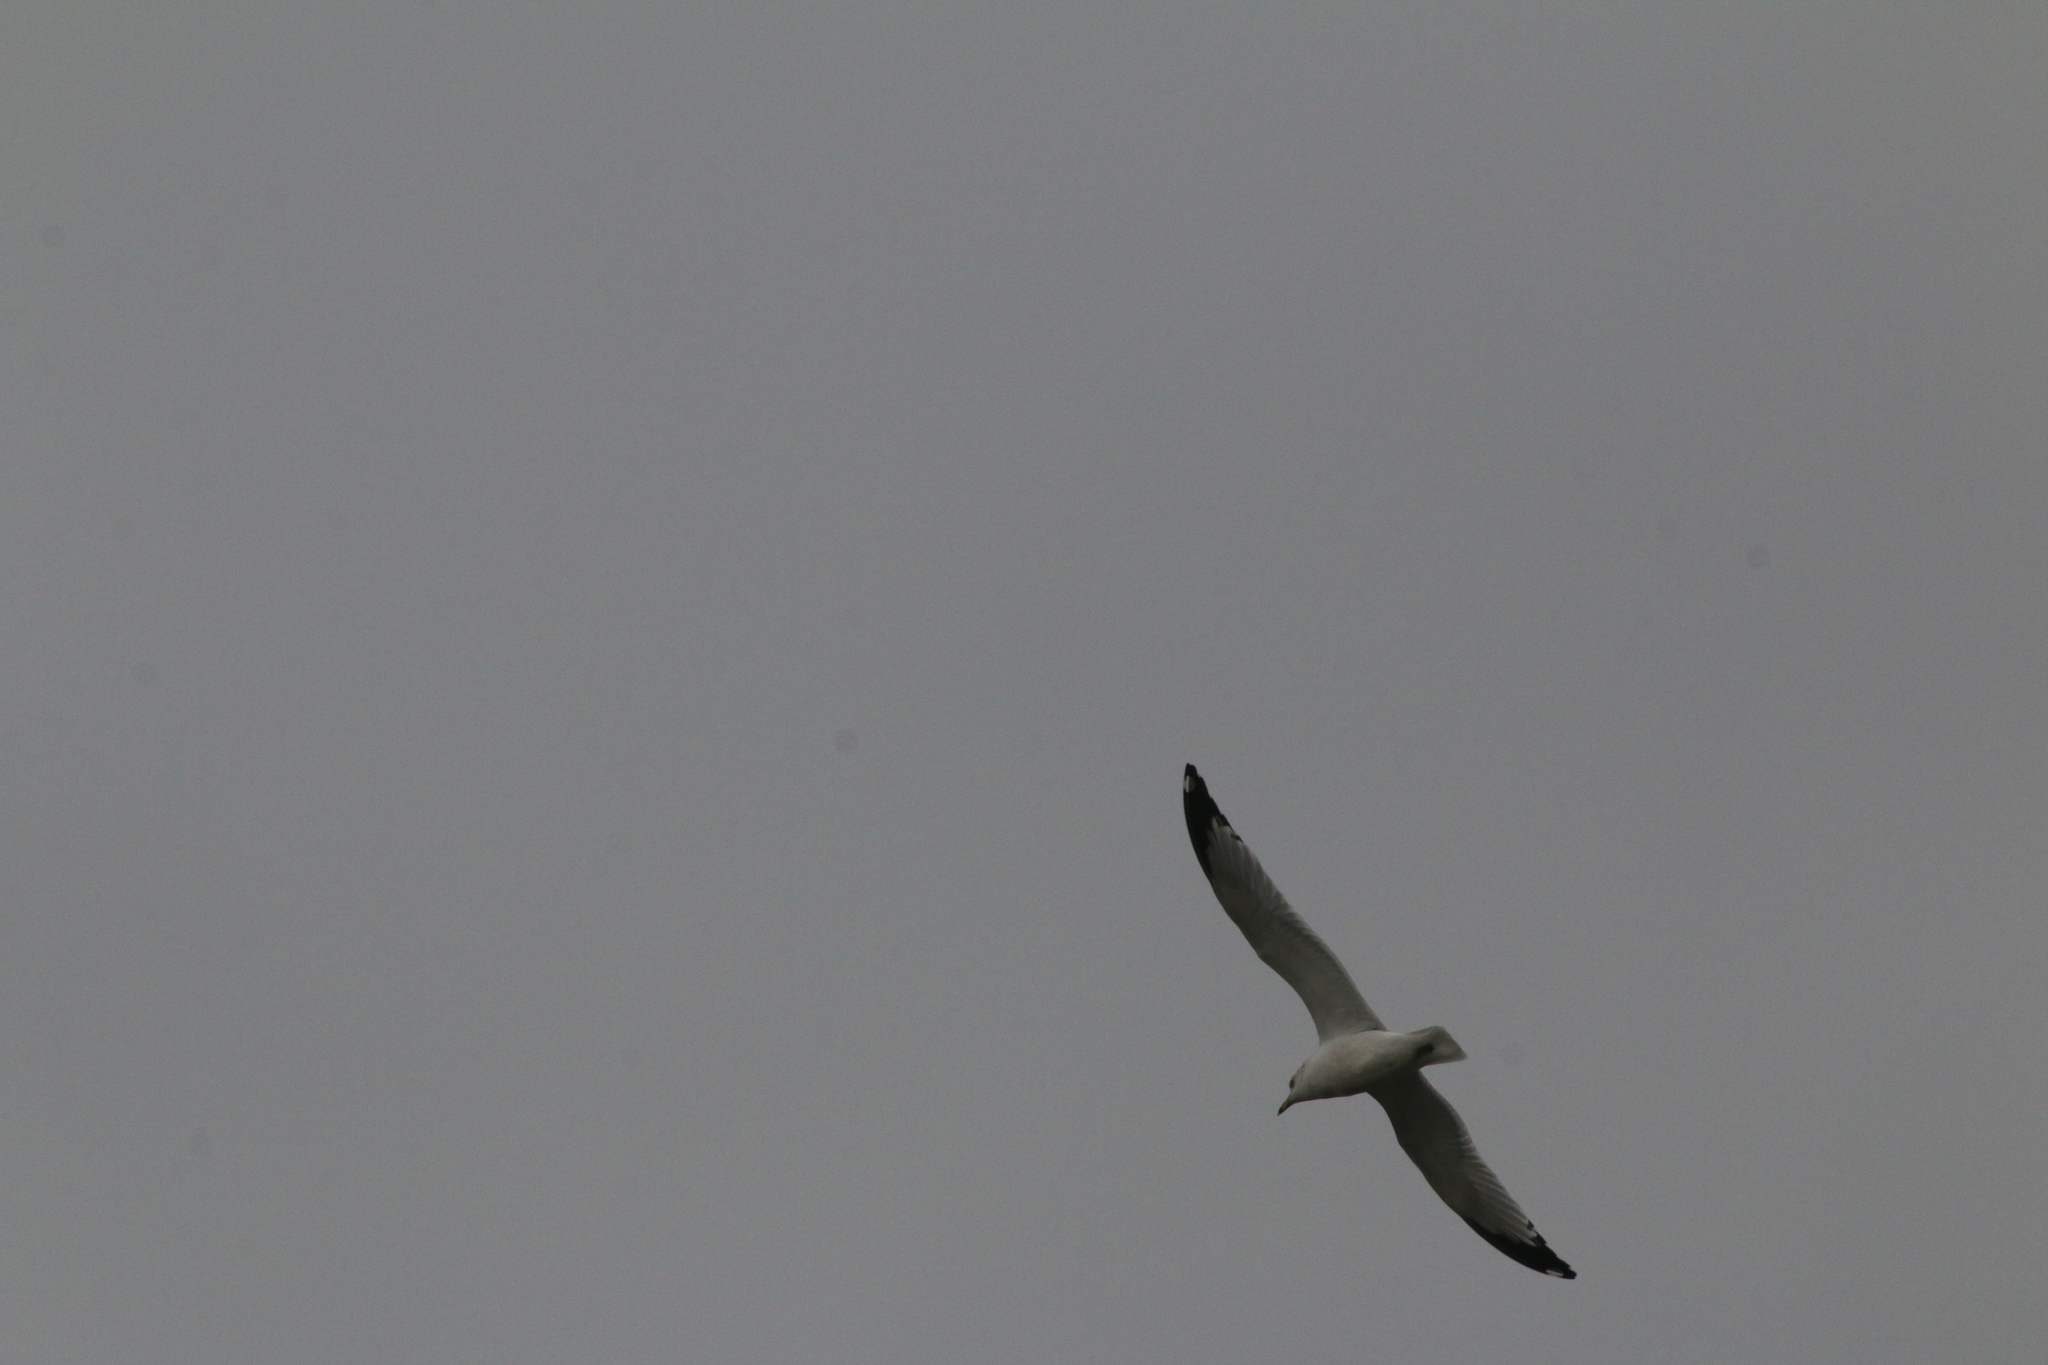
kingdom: Animalia
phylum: Chordata
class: Aves
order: Charadriiformes
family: Laridae
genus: Larus
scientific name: Larus delawarensis
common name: Ring-billed gull
